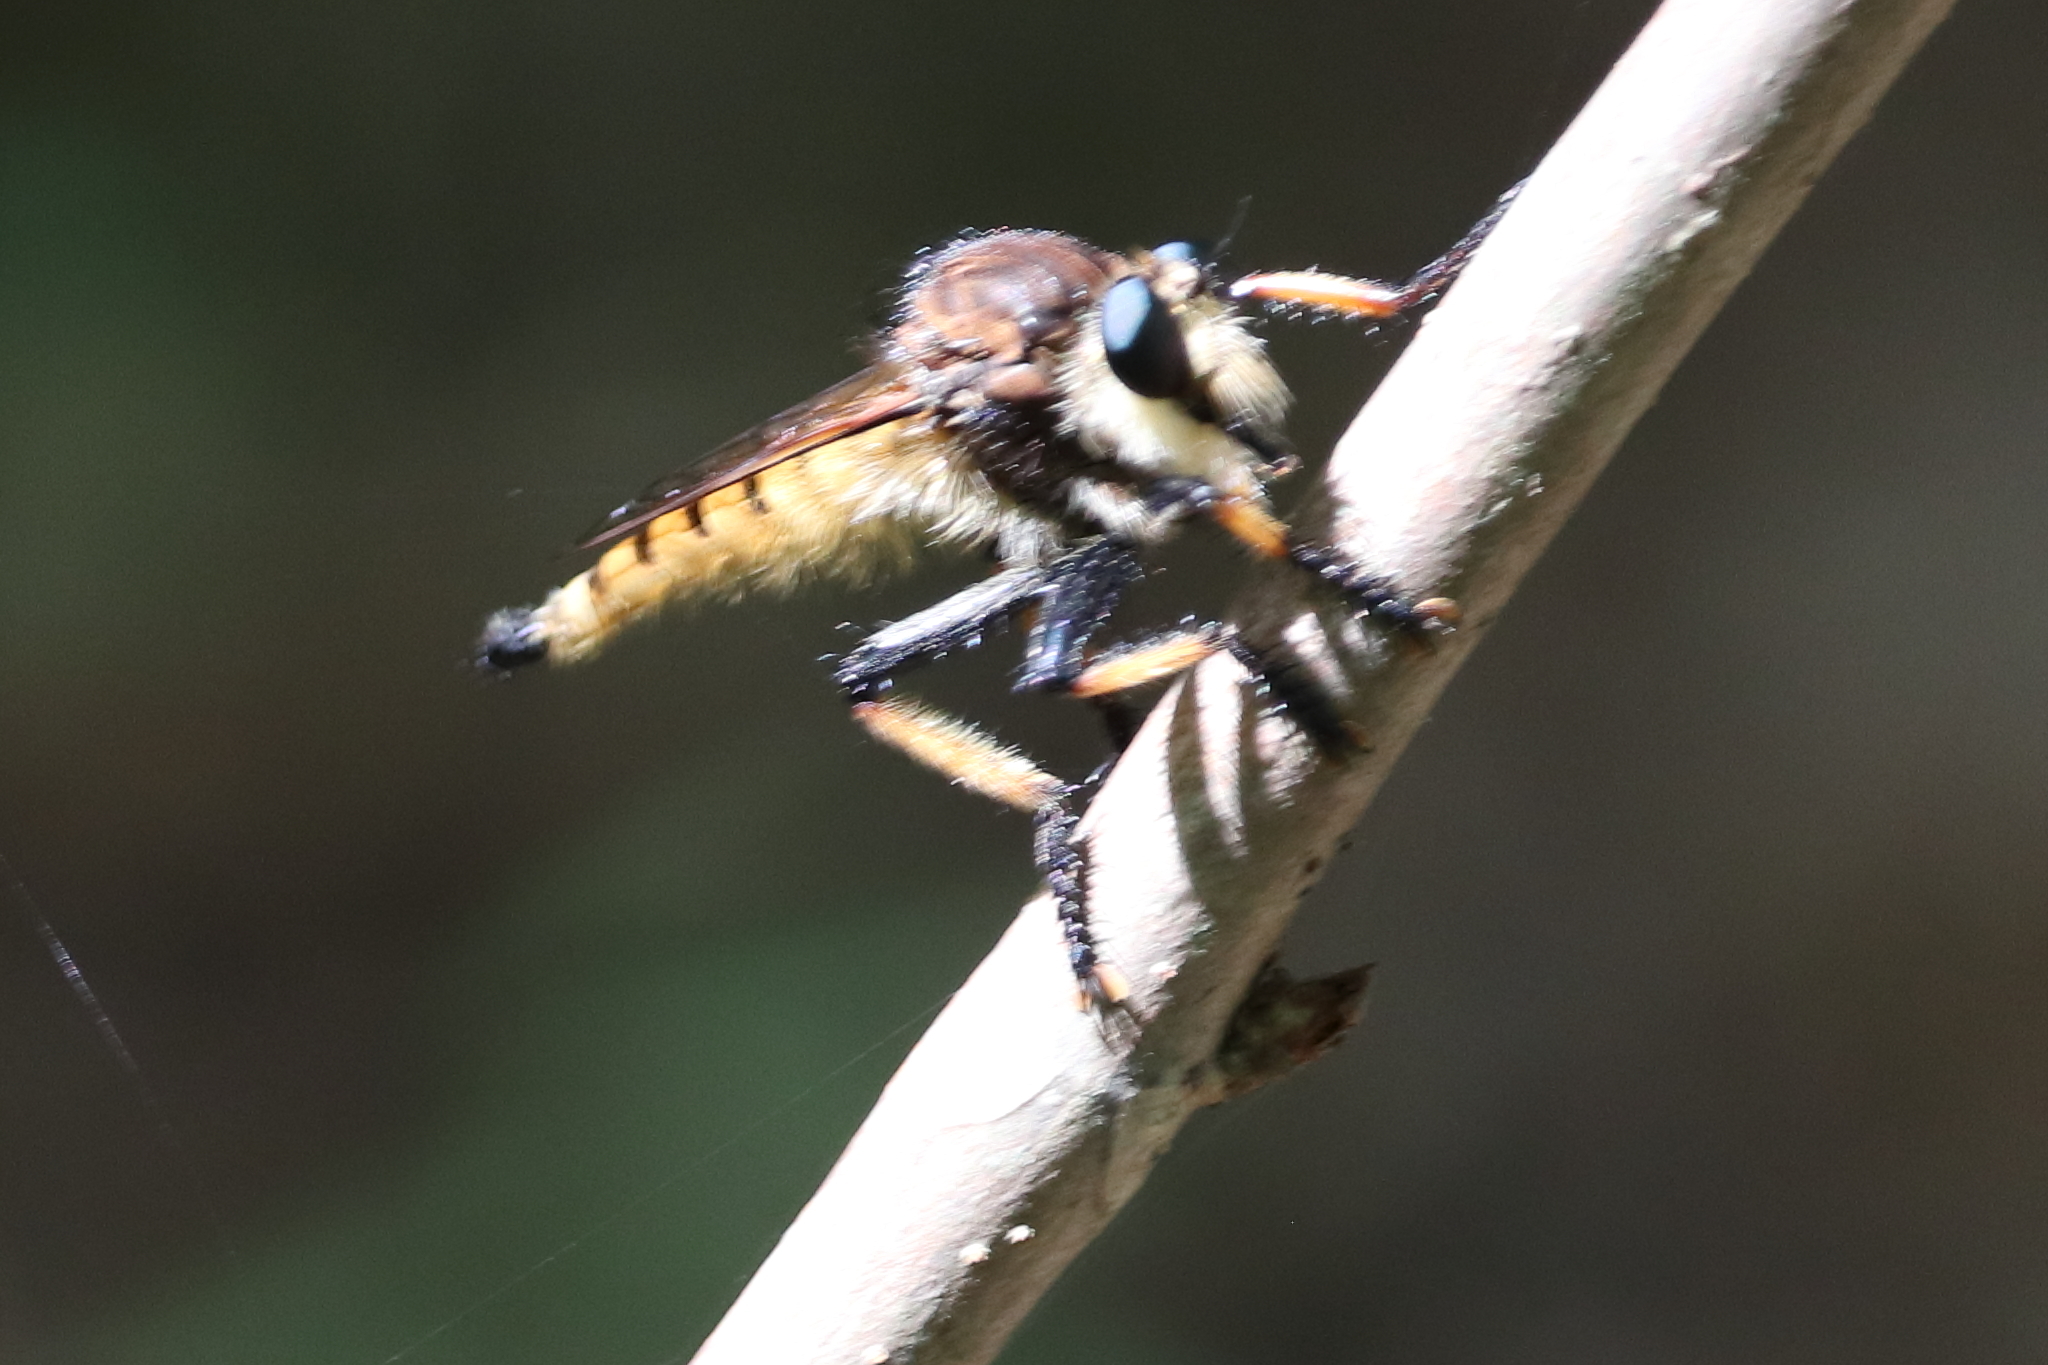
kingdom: Animalia
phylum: Arthropoda
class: Insecta
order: Diptera
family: Asilidae
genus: Promachus
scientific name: Promachus rufipes
